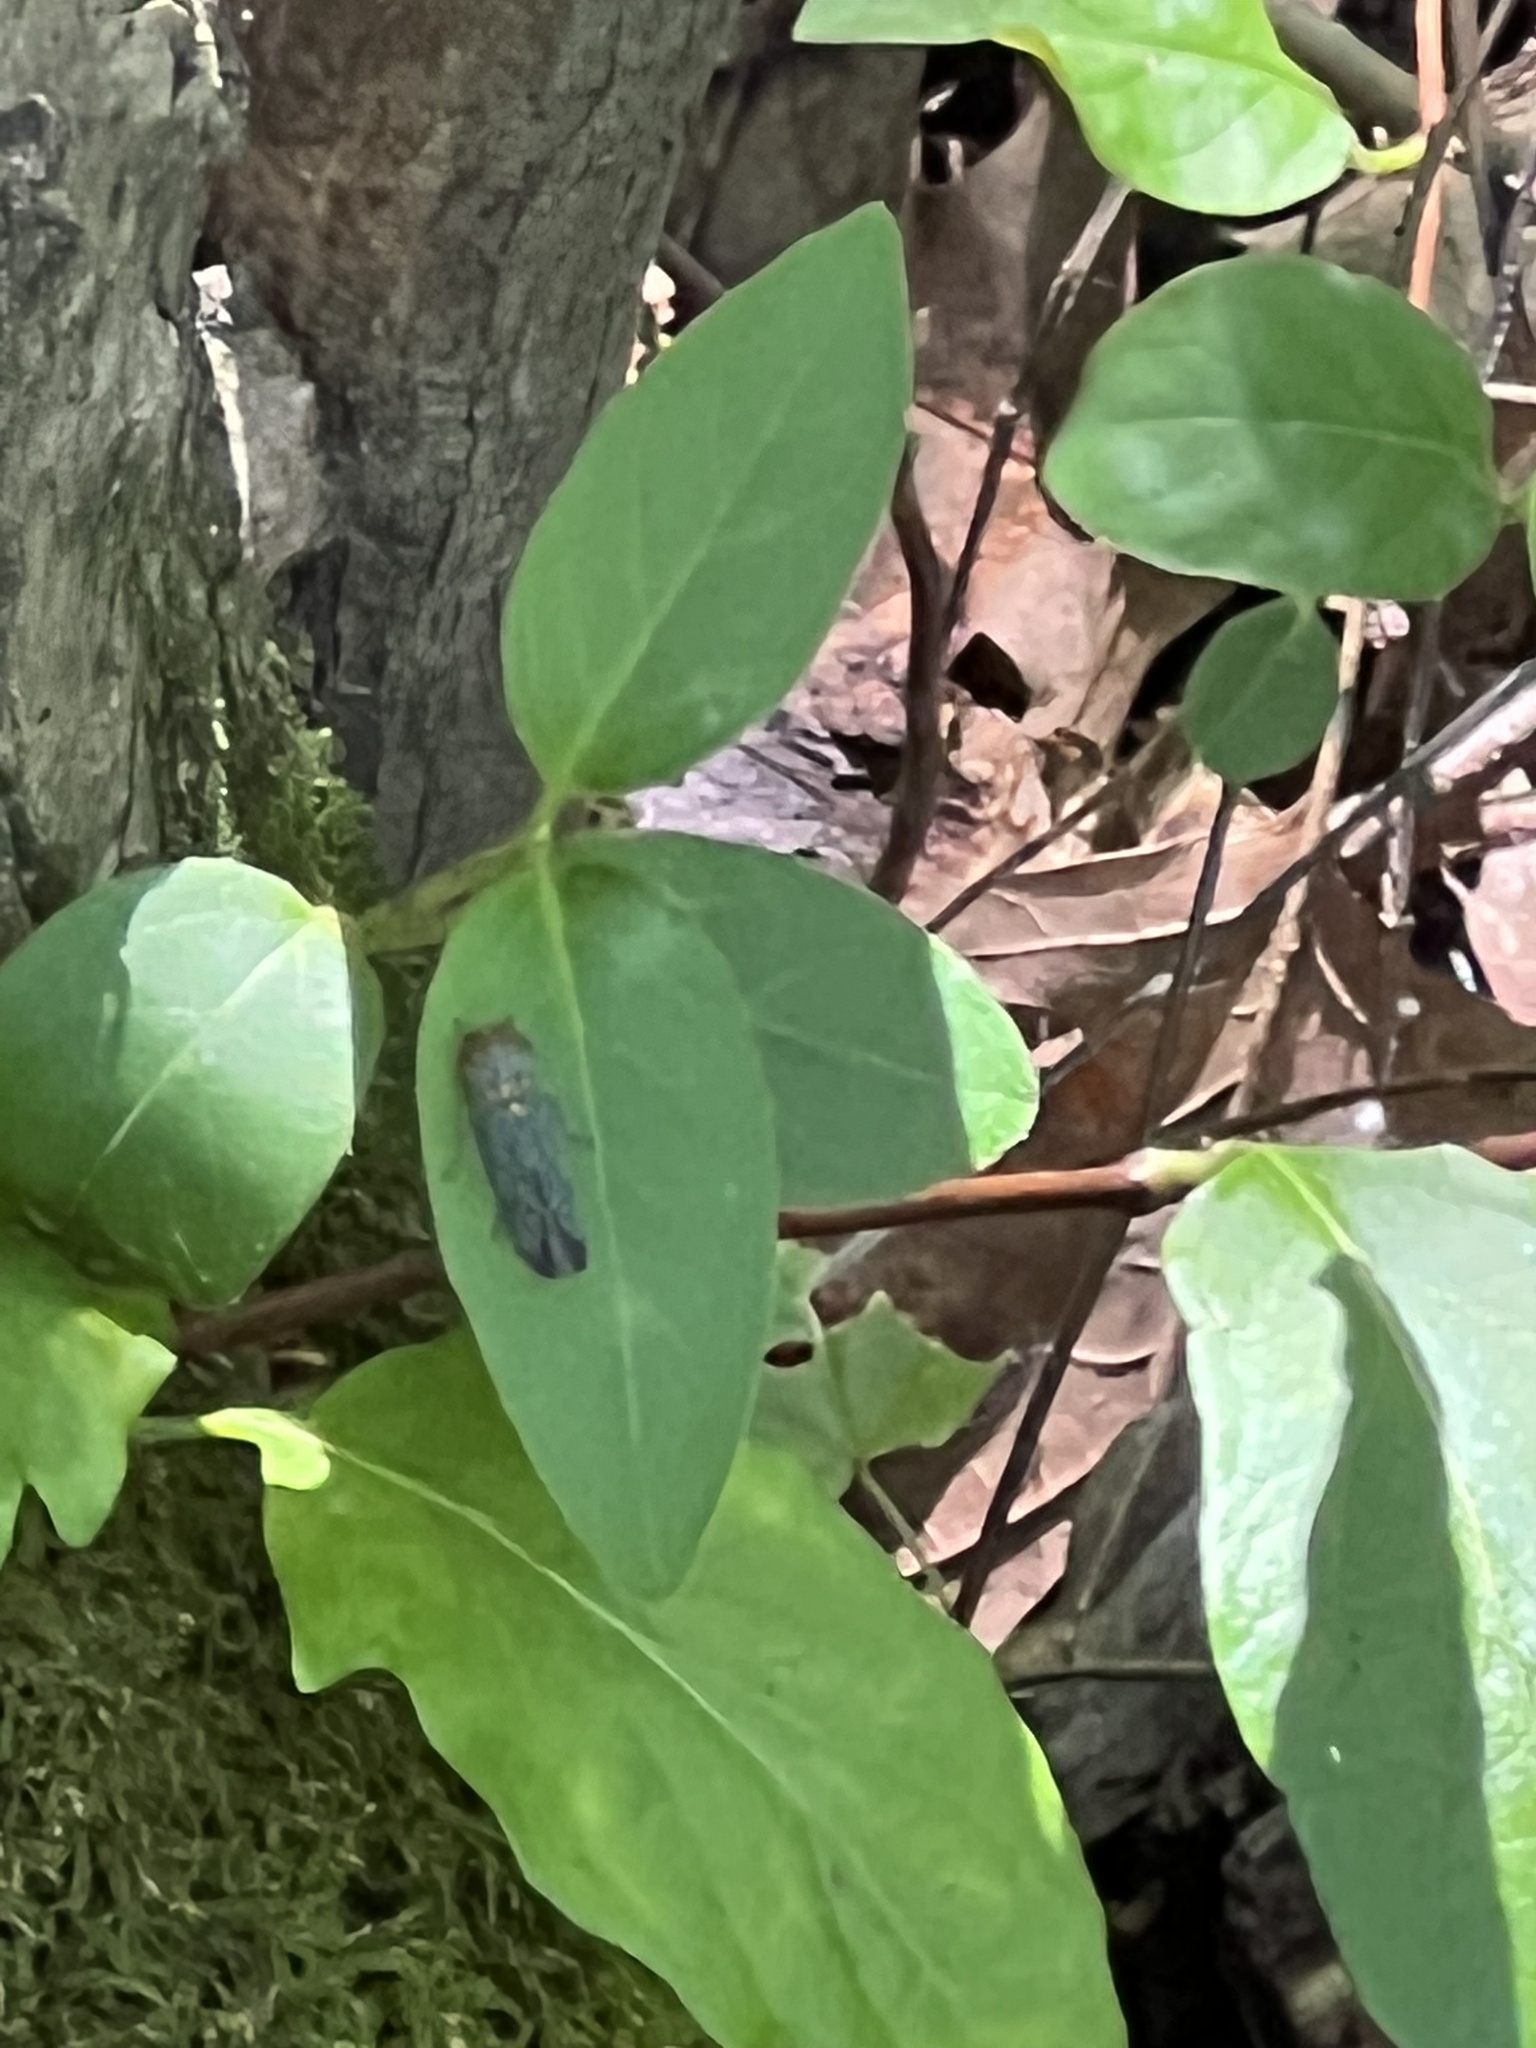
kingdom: Animalia
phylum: Arthropoda
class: Insecta
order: Hemiptera
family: Cicadellidae
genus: Oncometopia
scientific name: Oncometopia orbona
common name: Broad-headed sharpshooter
